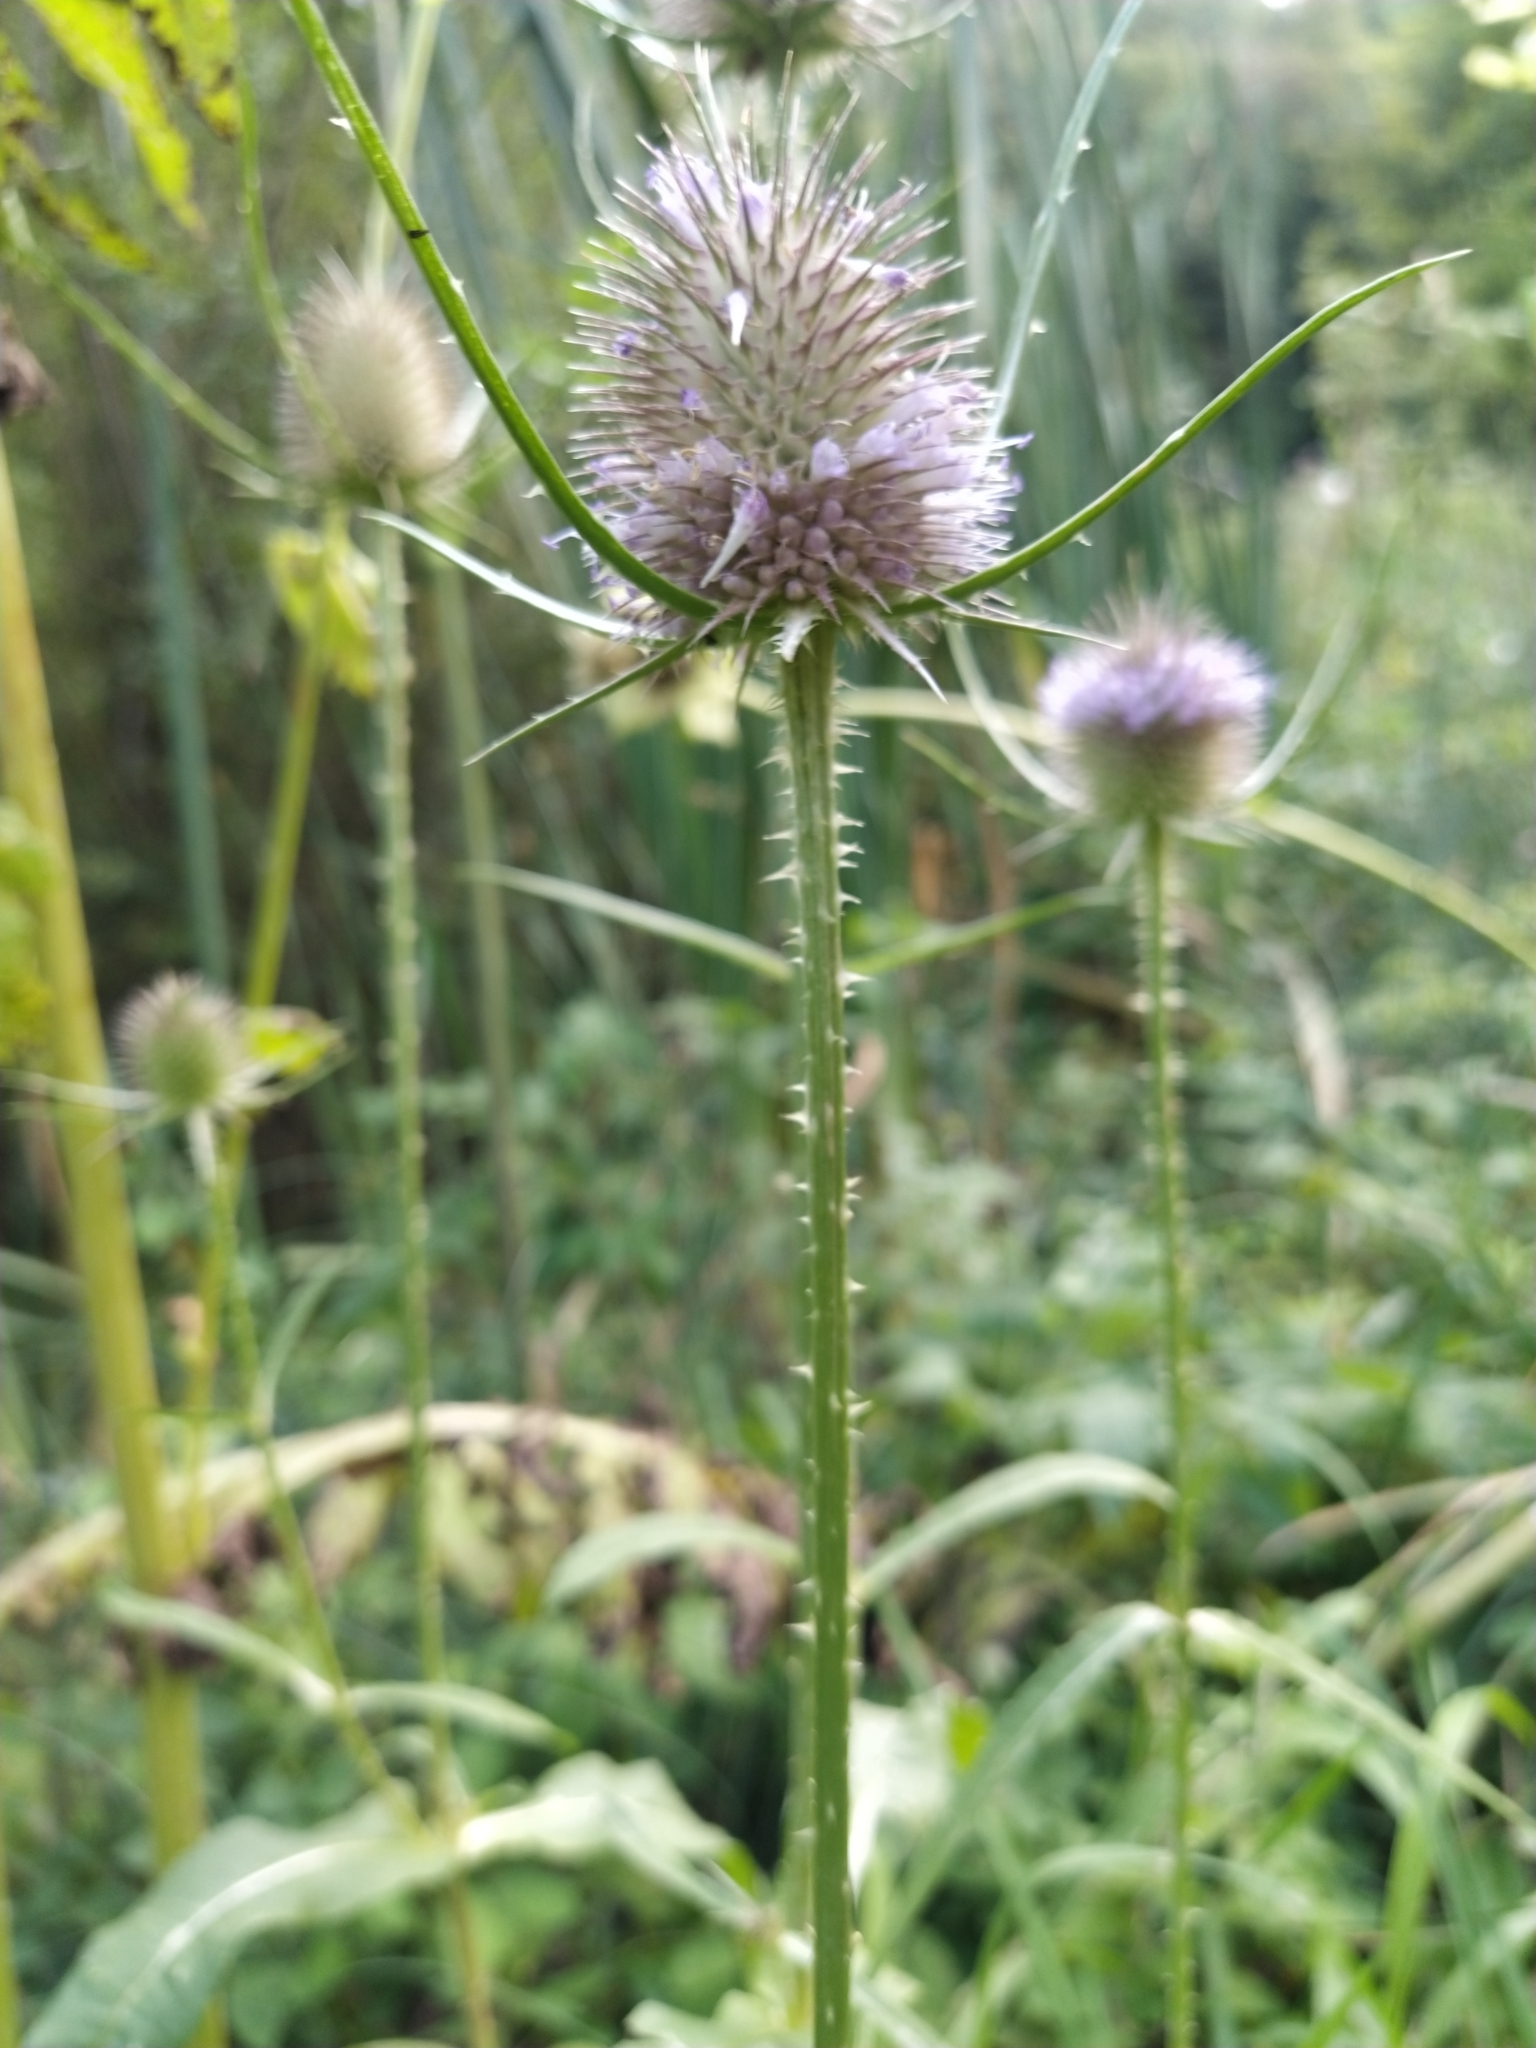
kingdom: Plantae
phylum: Tracheophyta
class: Magnoliopsida
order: Dipsacales
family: Caprifoliaceae
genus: Dipsacus
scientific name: Dipsacus fullonum
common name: Teasel
